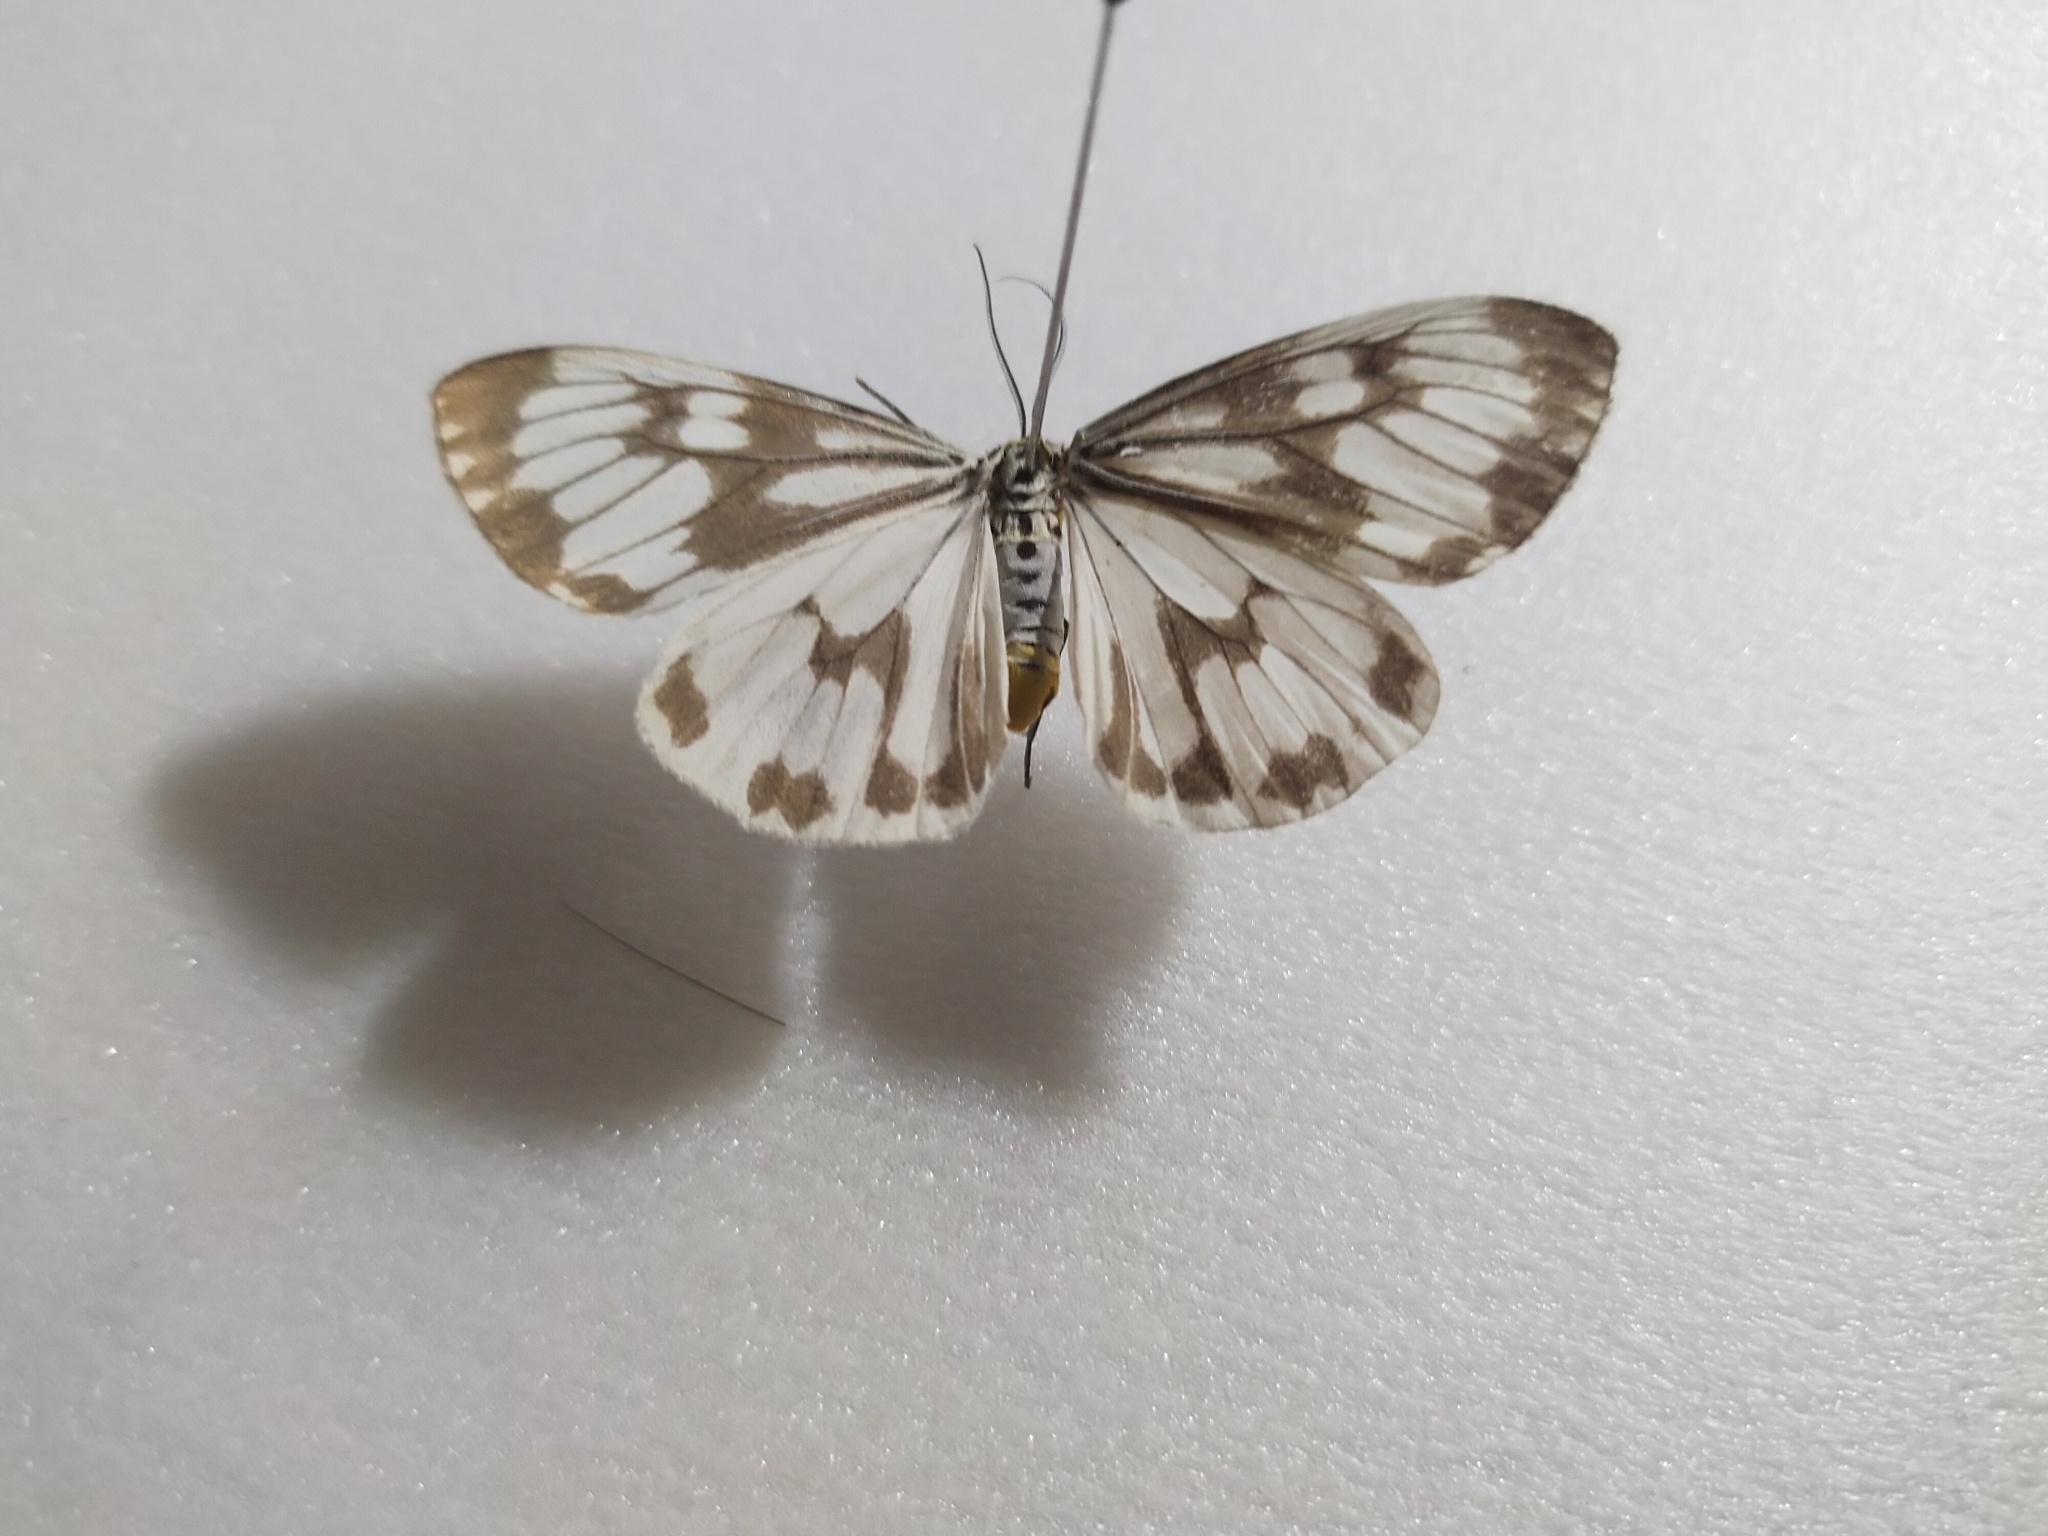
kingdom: Animalia
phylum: Arthropoda
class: Insecta
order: Lepidoptera
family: Erebidae
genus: Nyctemera
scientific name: Nyctemera adversata
